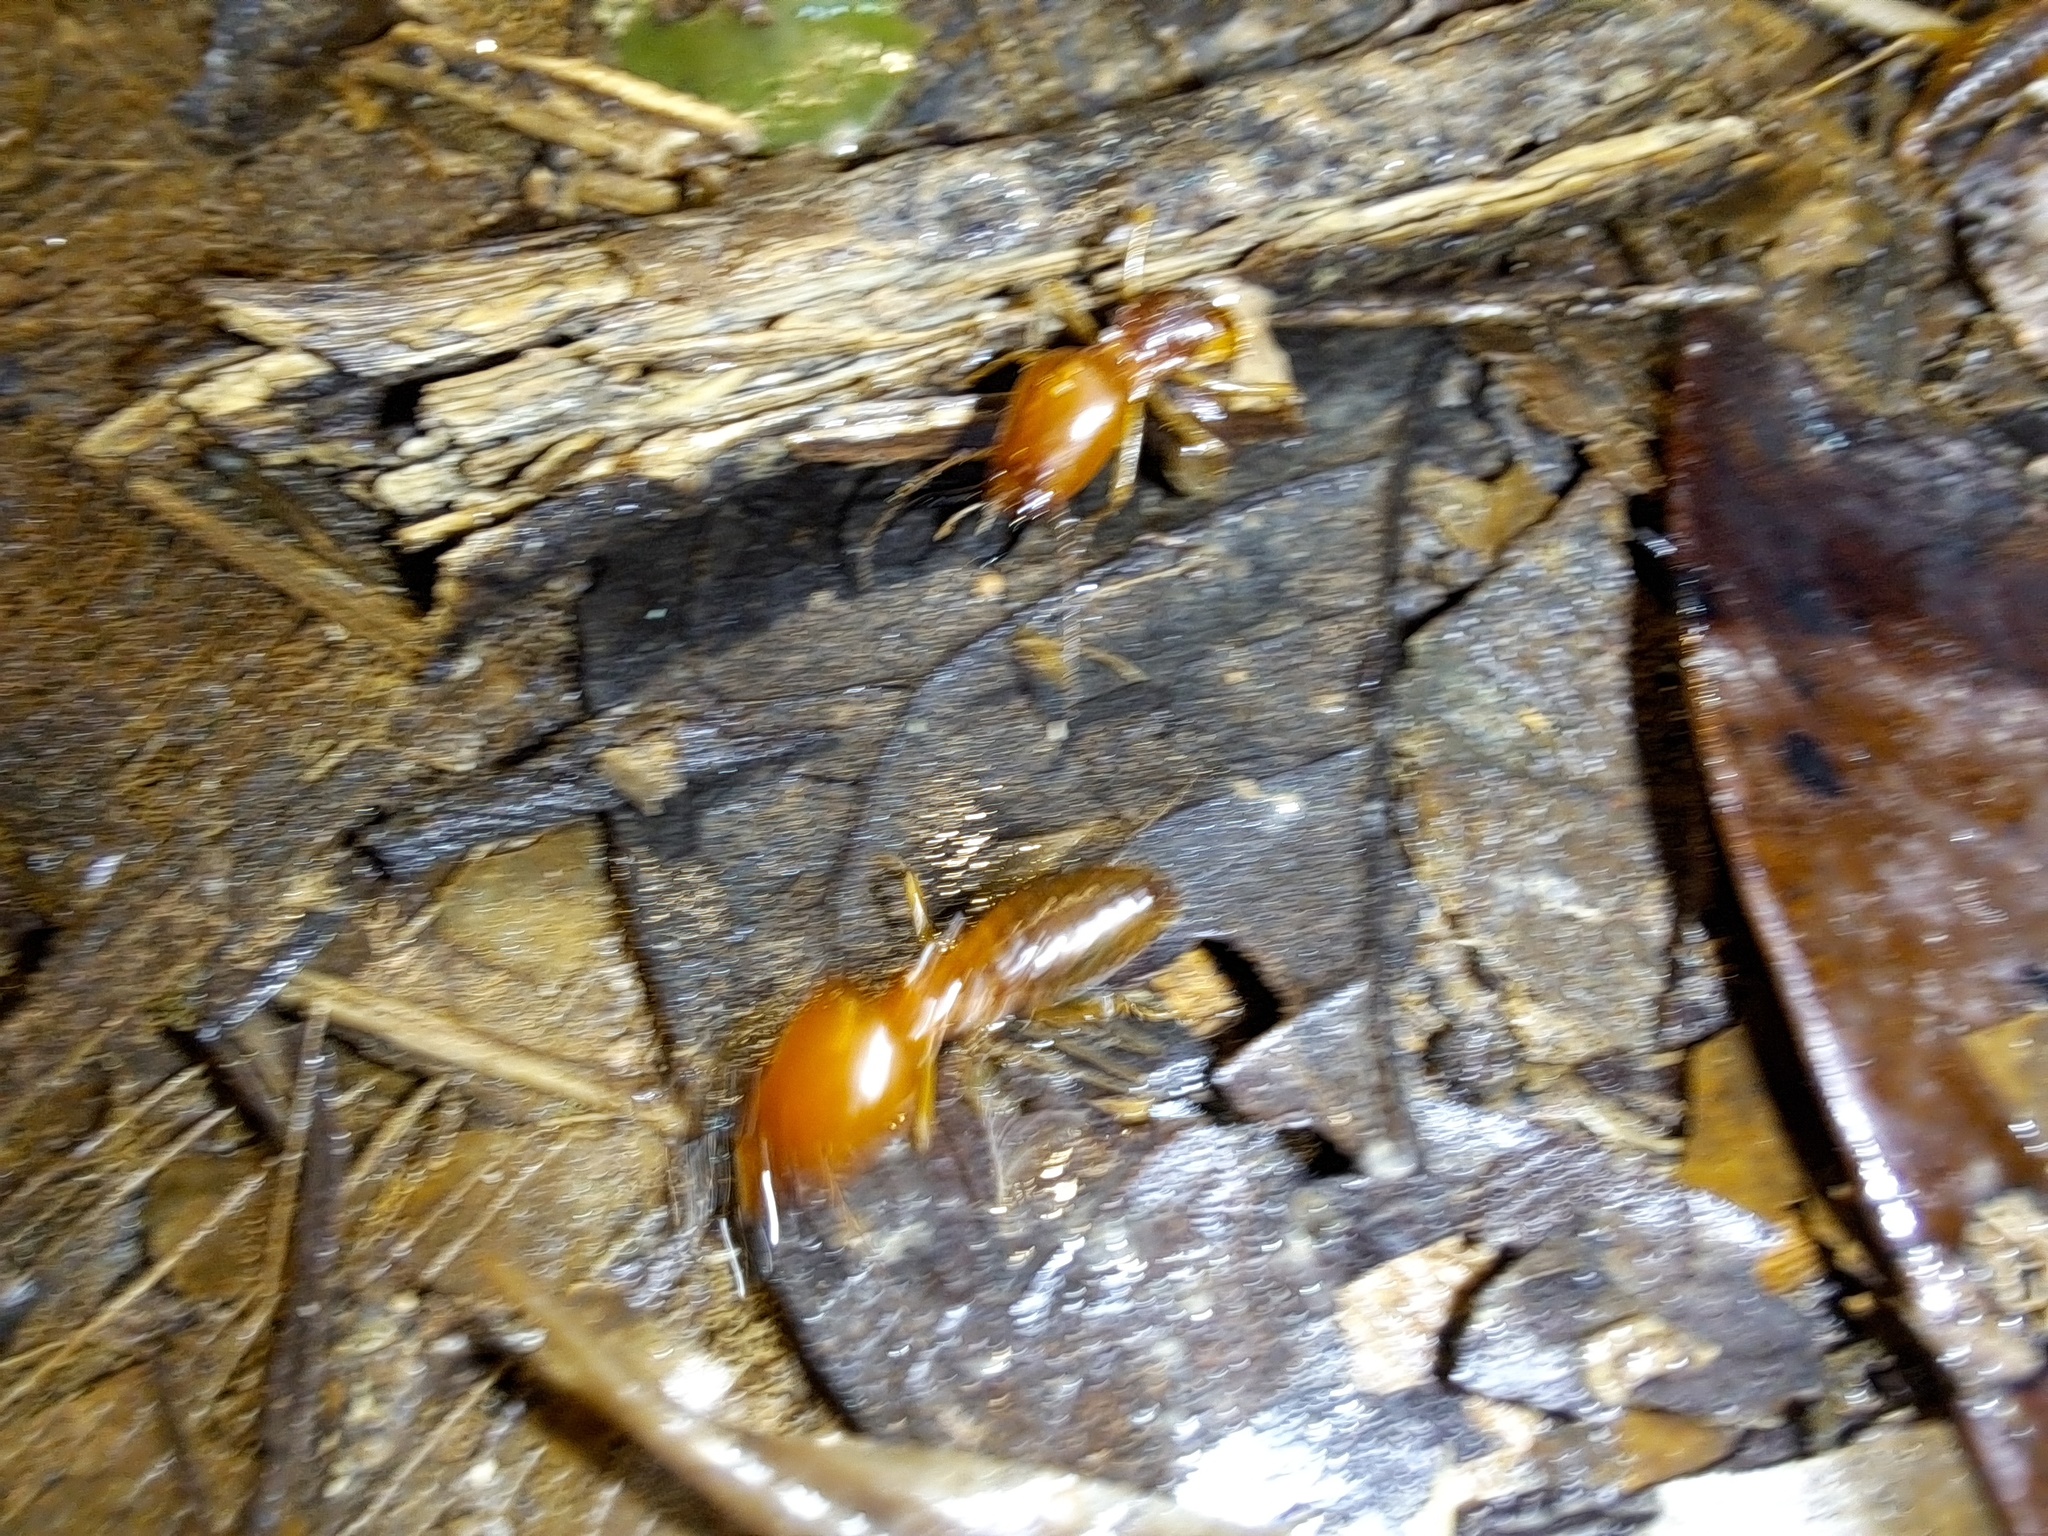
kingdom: Animalia
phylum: Arthropoda
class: Insecta
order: Blattodea
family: Termitidae
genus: Syntermes
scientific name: Syntermes molestus
